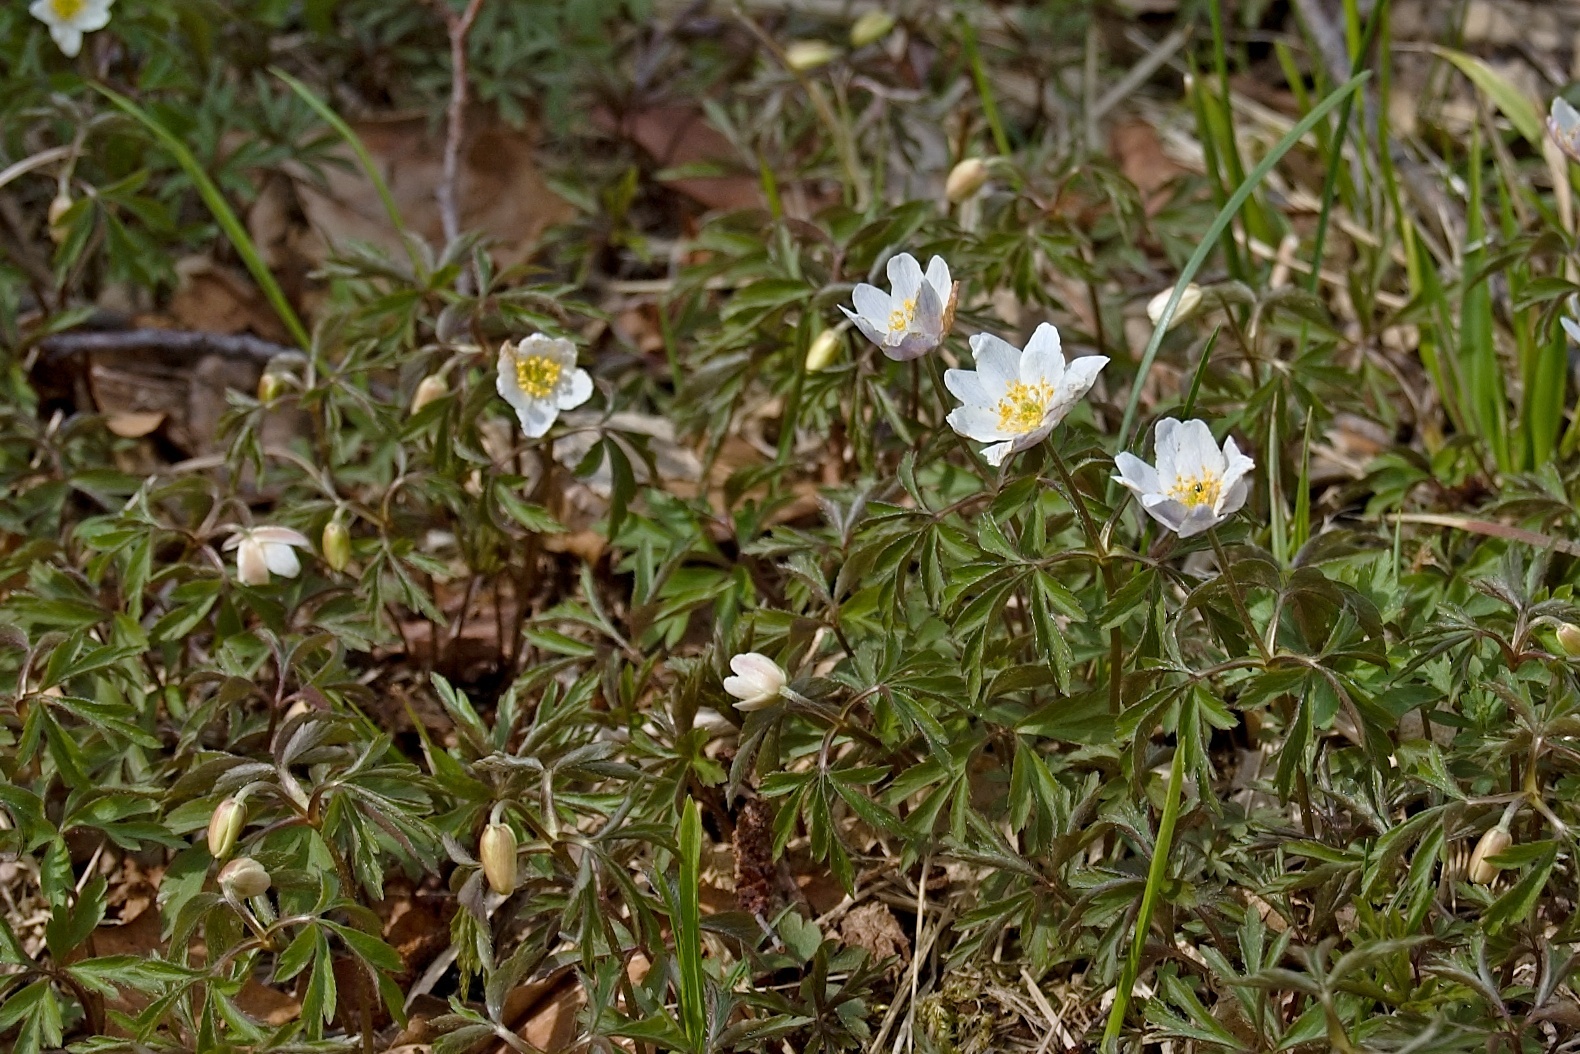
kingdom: Plantae
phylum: Tracheophyta
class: Magnoliopsida
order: Ranunculales
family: Ranunculaceae
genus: Anemone
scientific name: Anemone nemorosa
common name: Wood anemone
